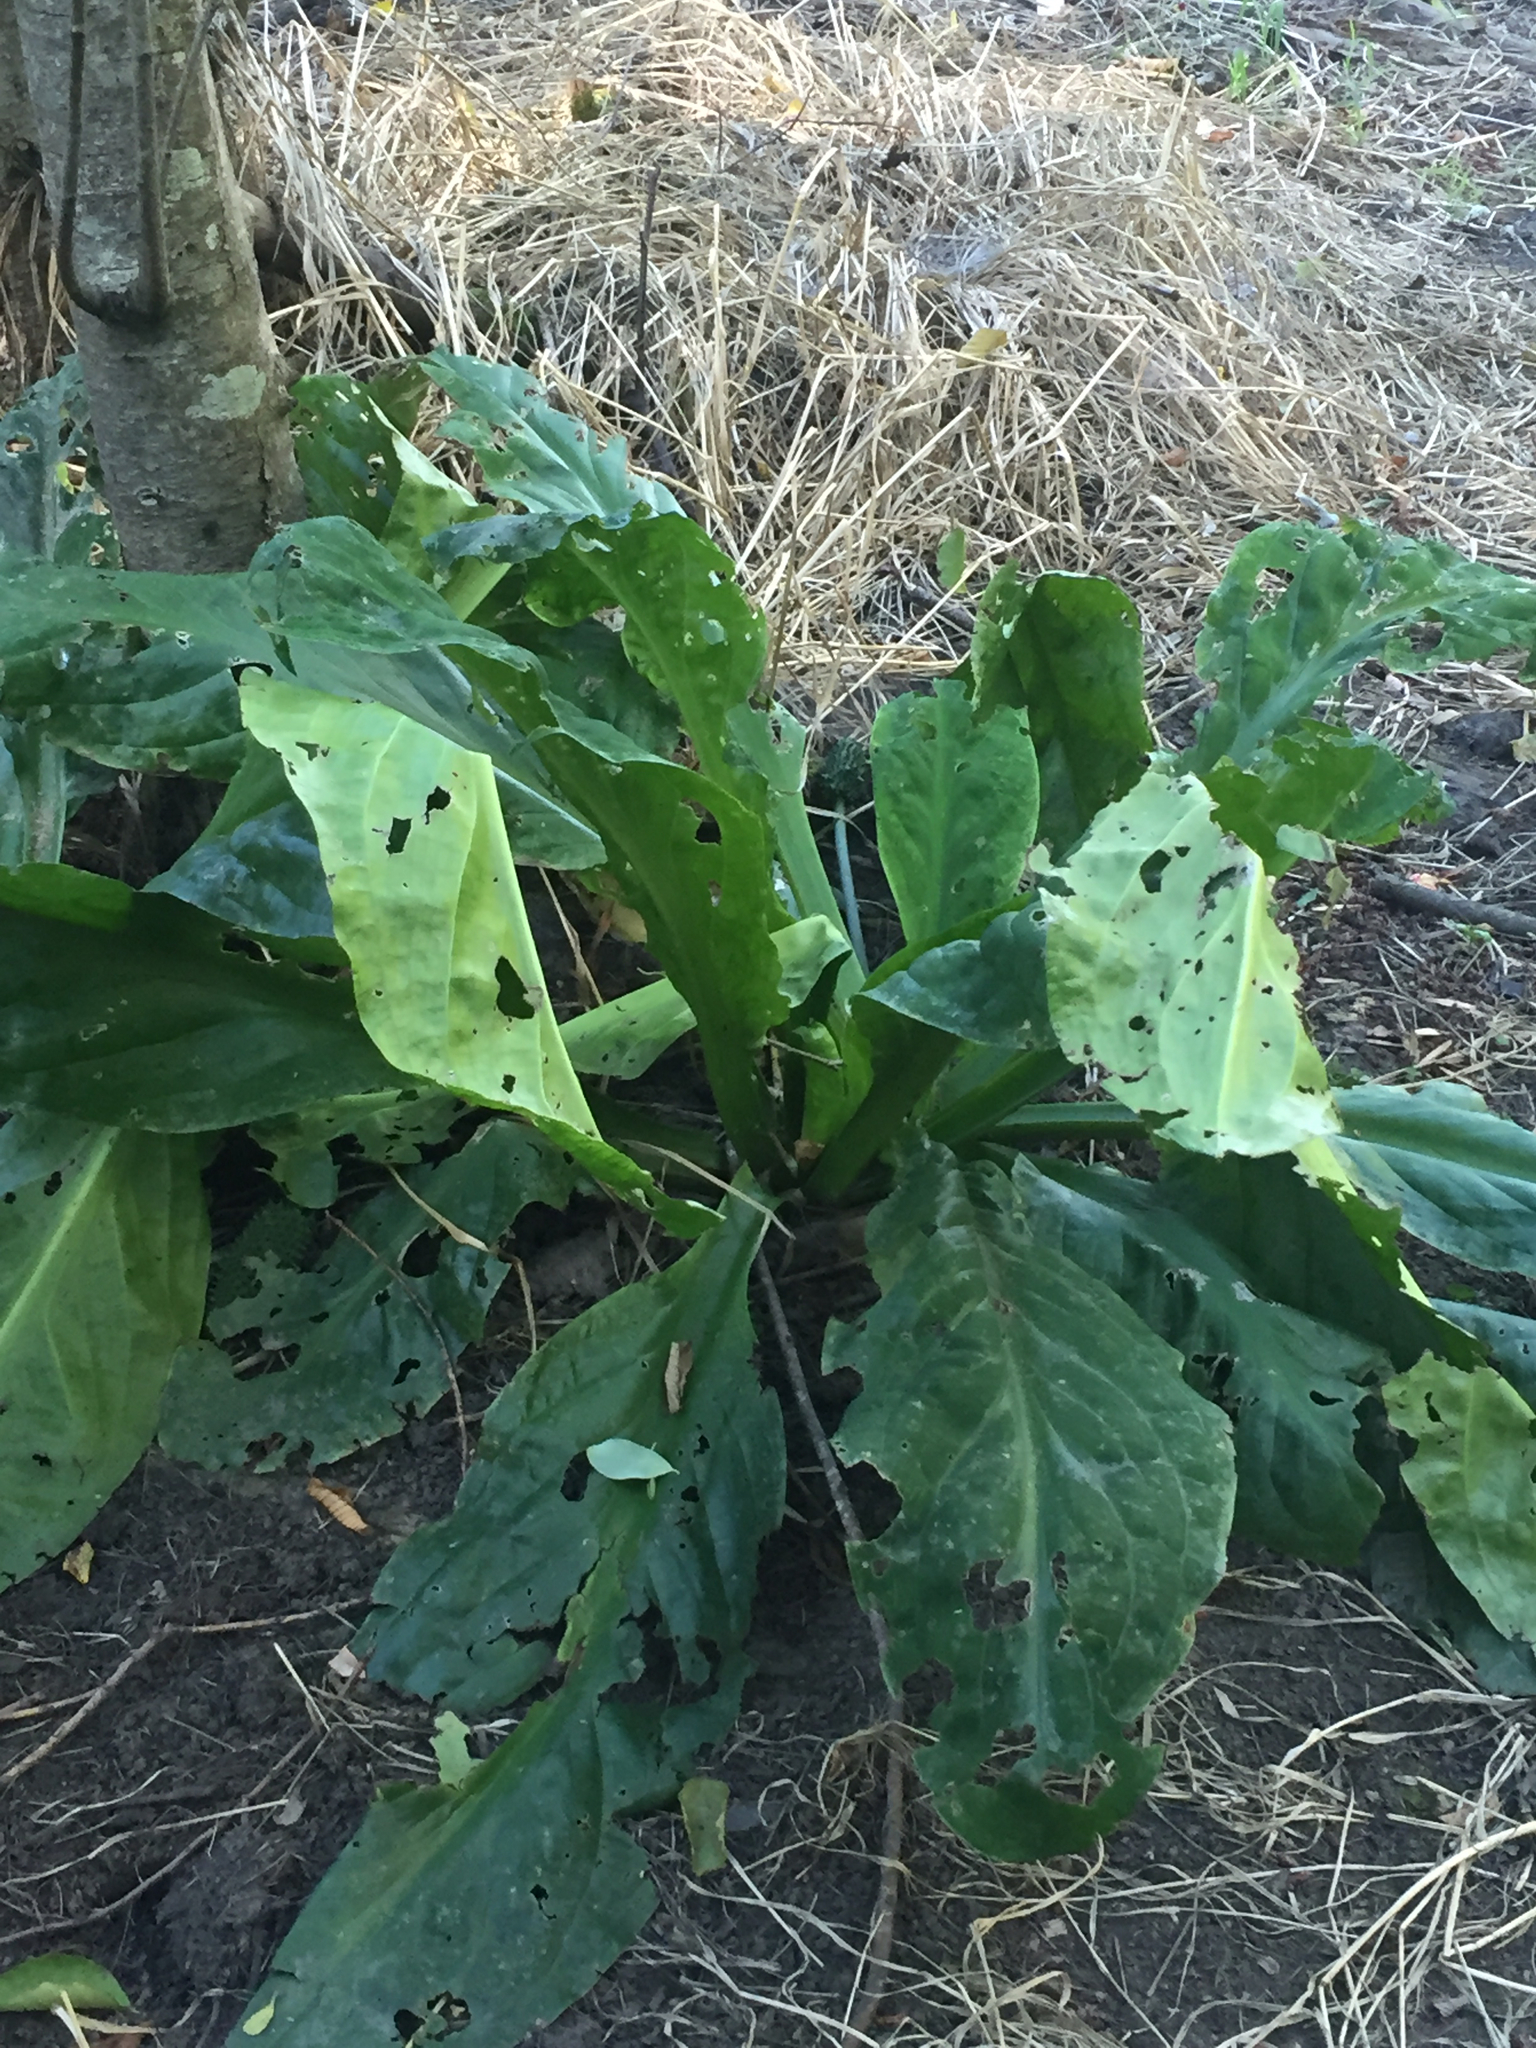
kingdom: Plantae
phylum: Tracheophyta
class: Liliopsida
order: Alismatales
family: Araceae
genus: Lysichiton
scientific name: Lysichiton americanus
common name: American skunk cabbage
